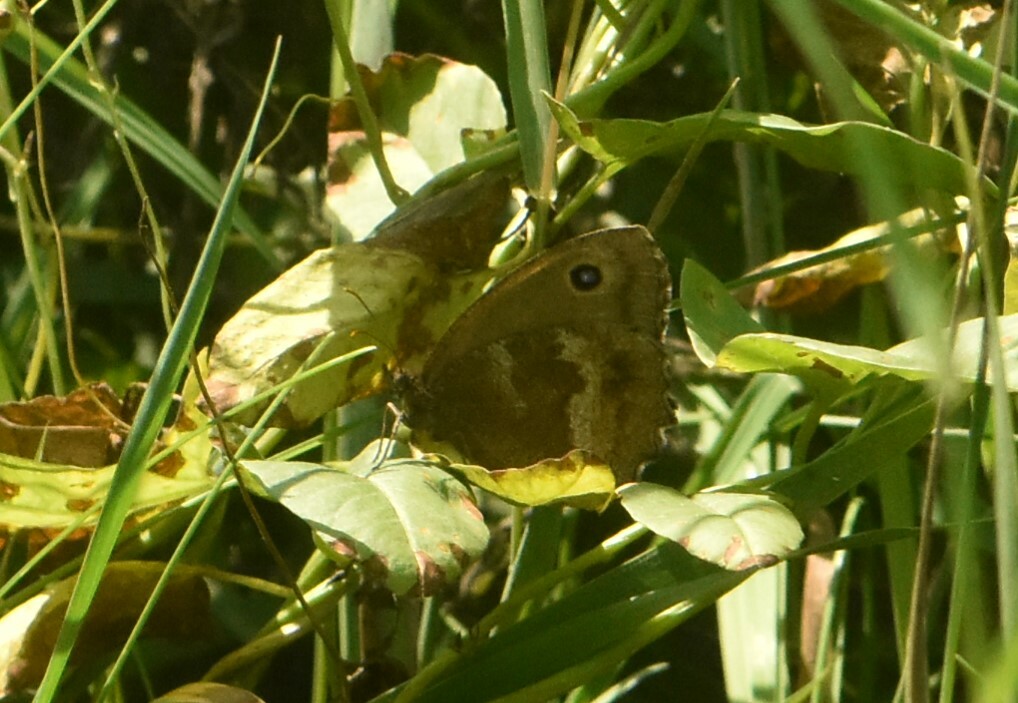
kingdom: Animalia
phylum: Arthropoda
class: Insecta
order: Lepidoptera
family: Nymphalidae
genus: Minois
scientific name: Minois dryas
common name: Dryad
